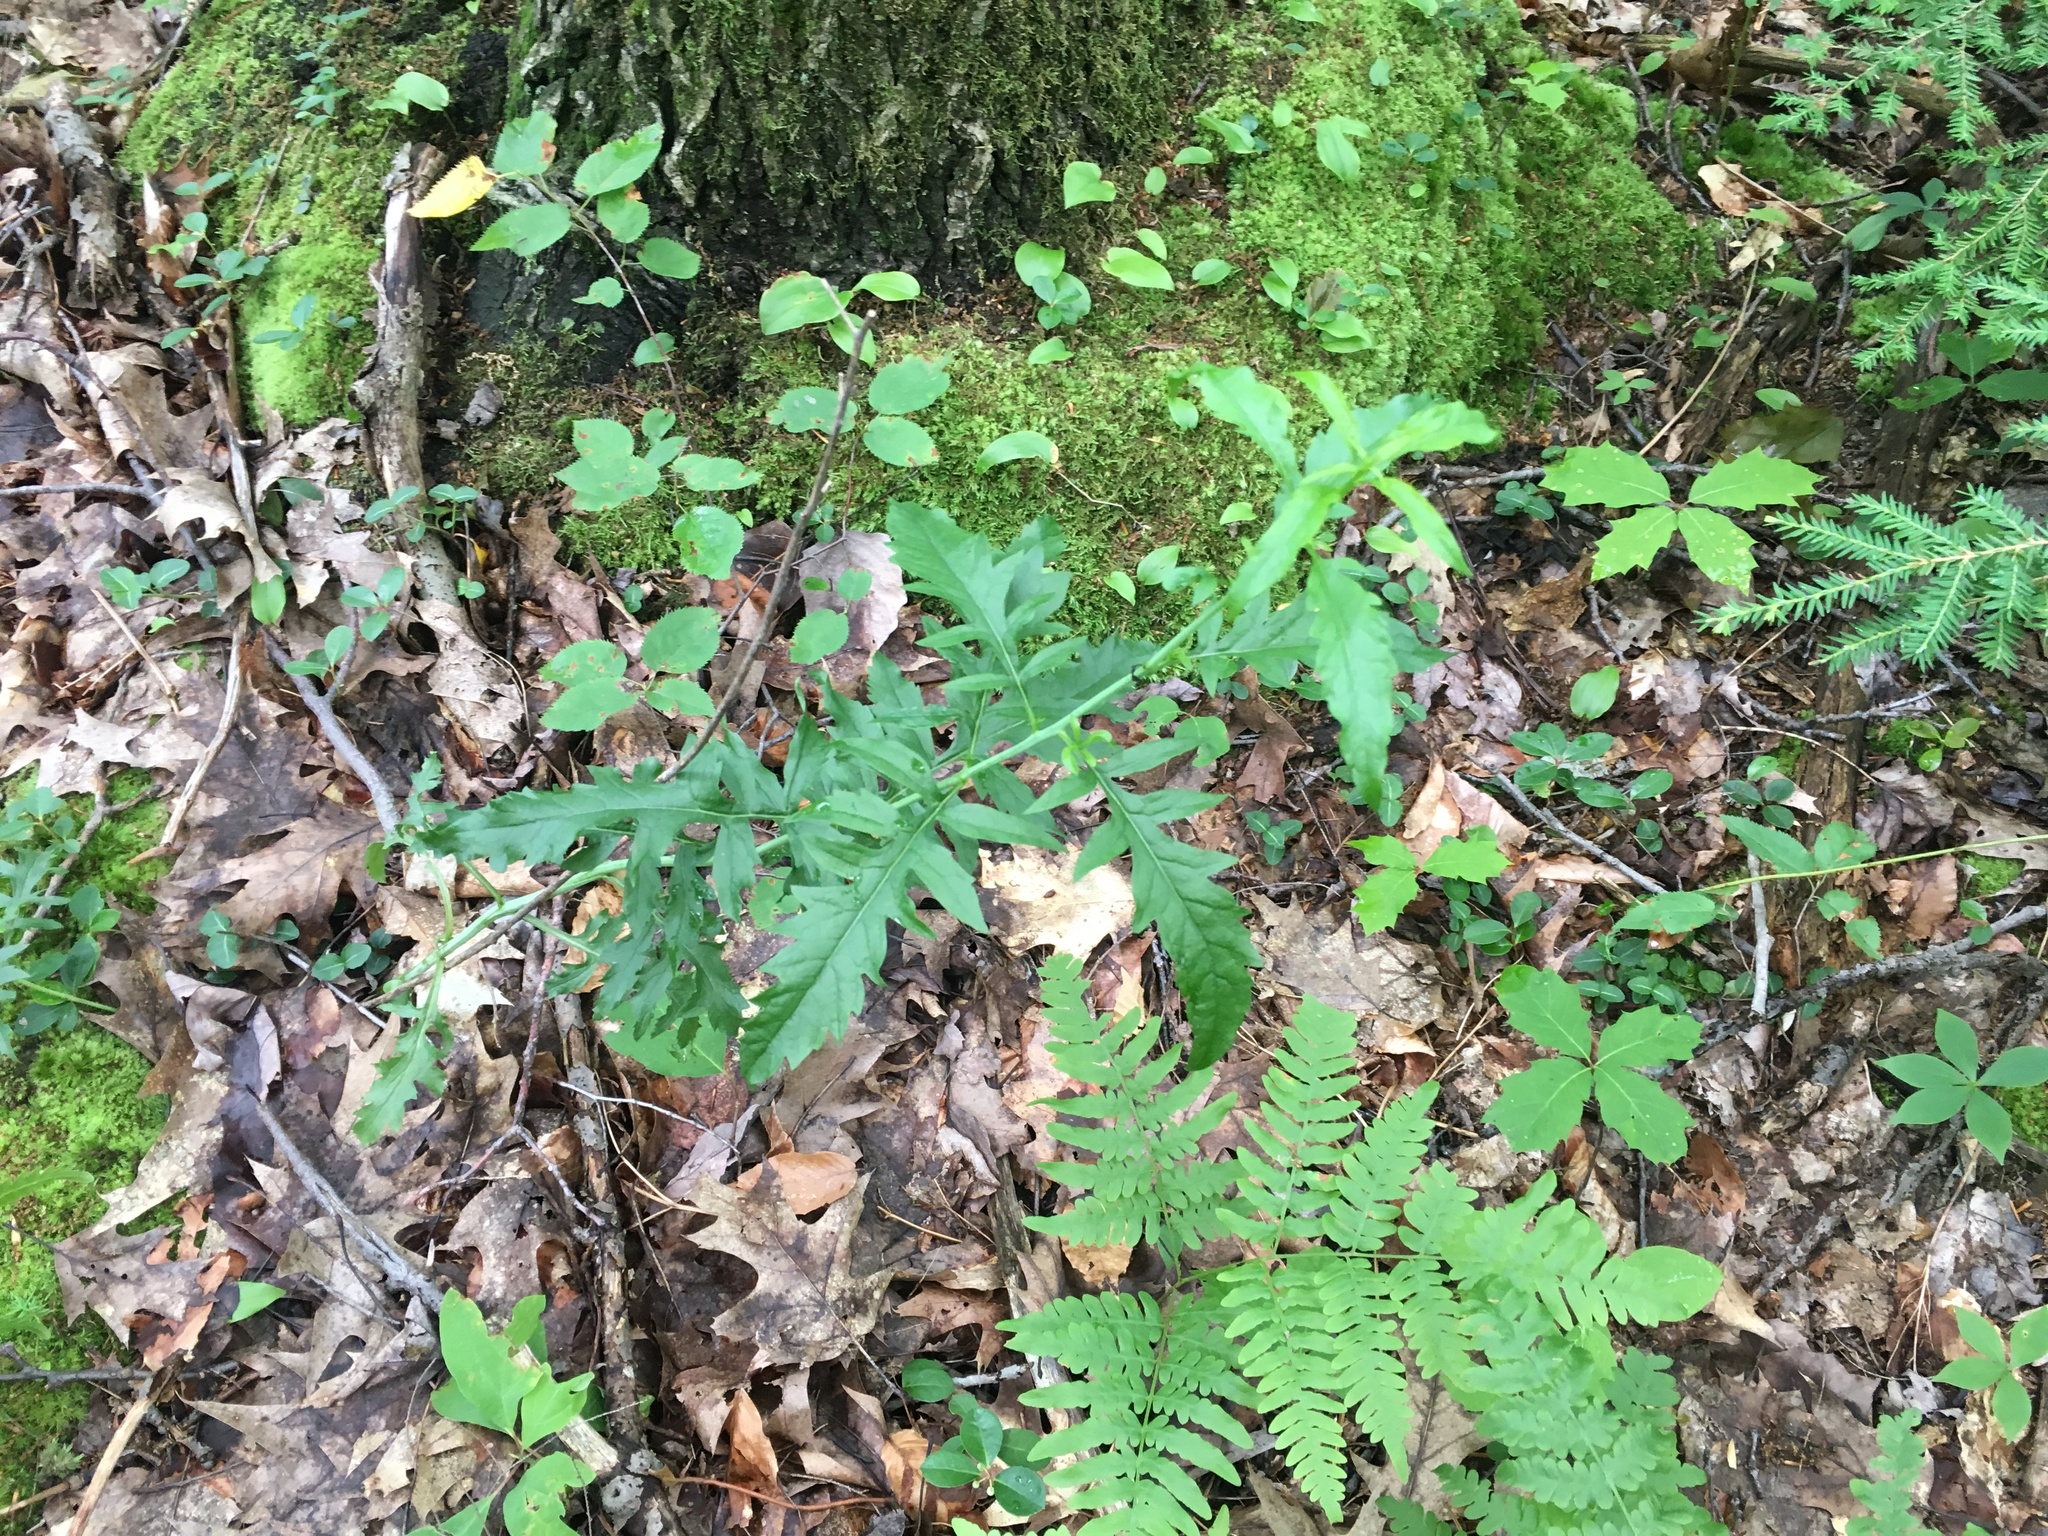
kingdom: Plantae
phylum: Tracheophyta
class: Magnoliopsida
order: Lamiales
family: Orobanchaceae
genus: Aureolaria
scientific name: Aureolaria flava
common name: Smooth false foxglove
